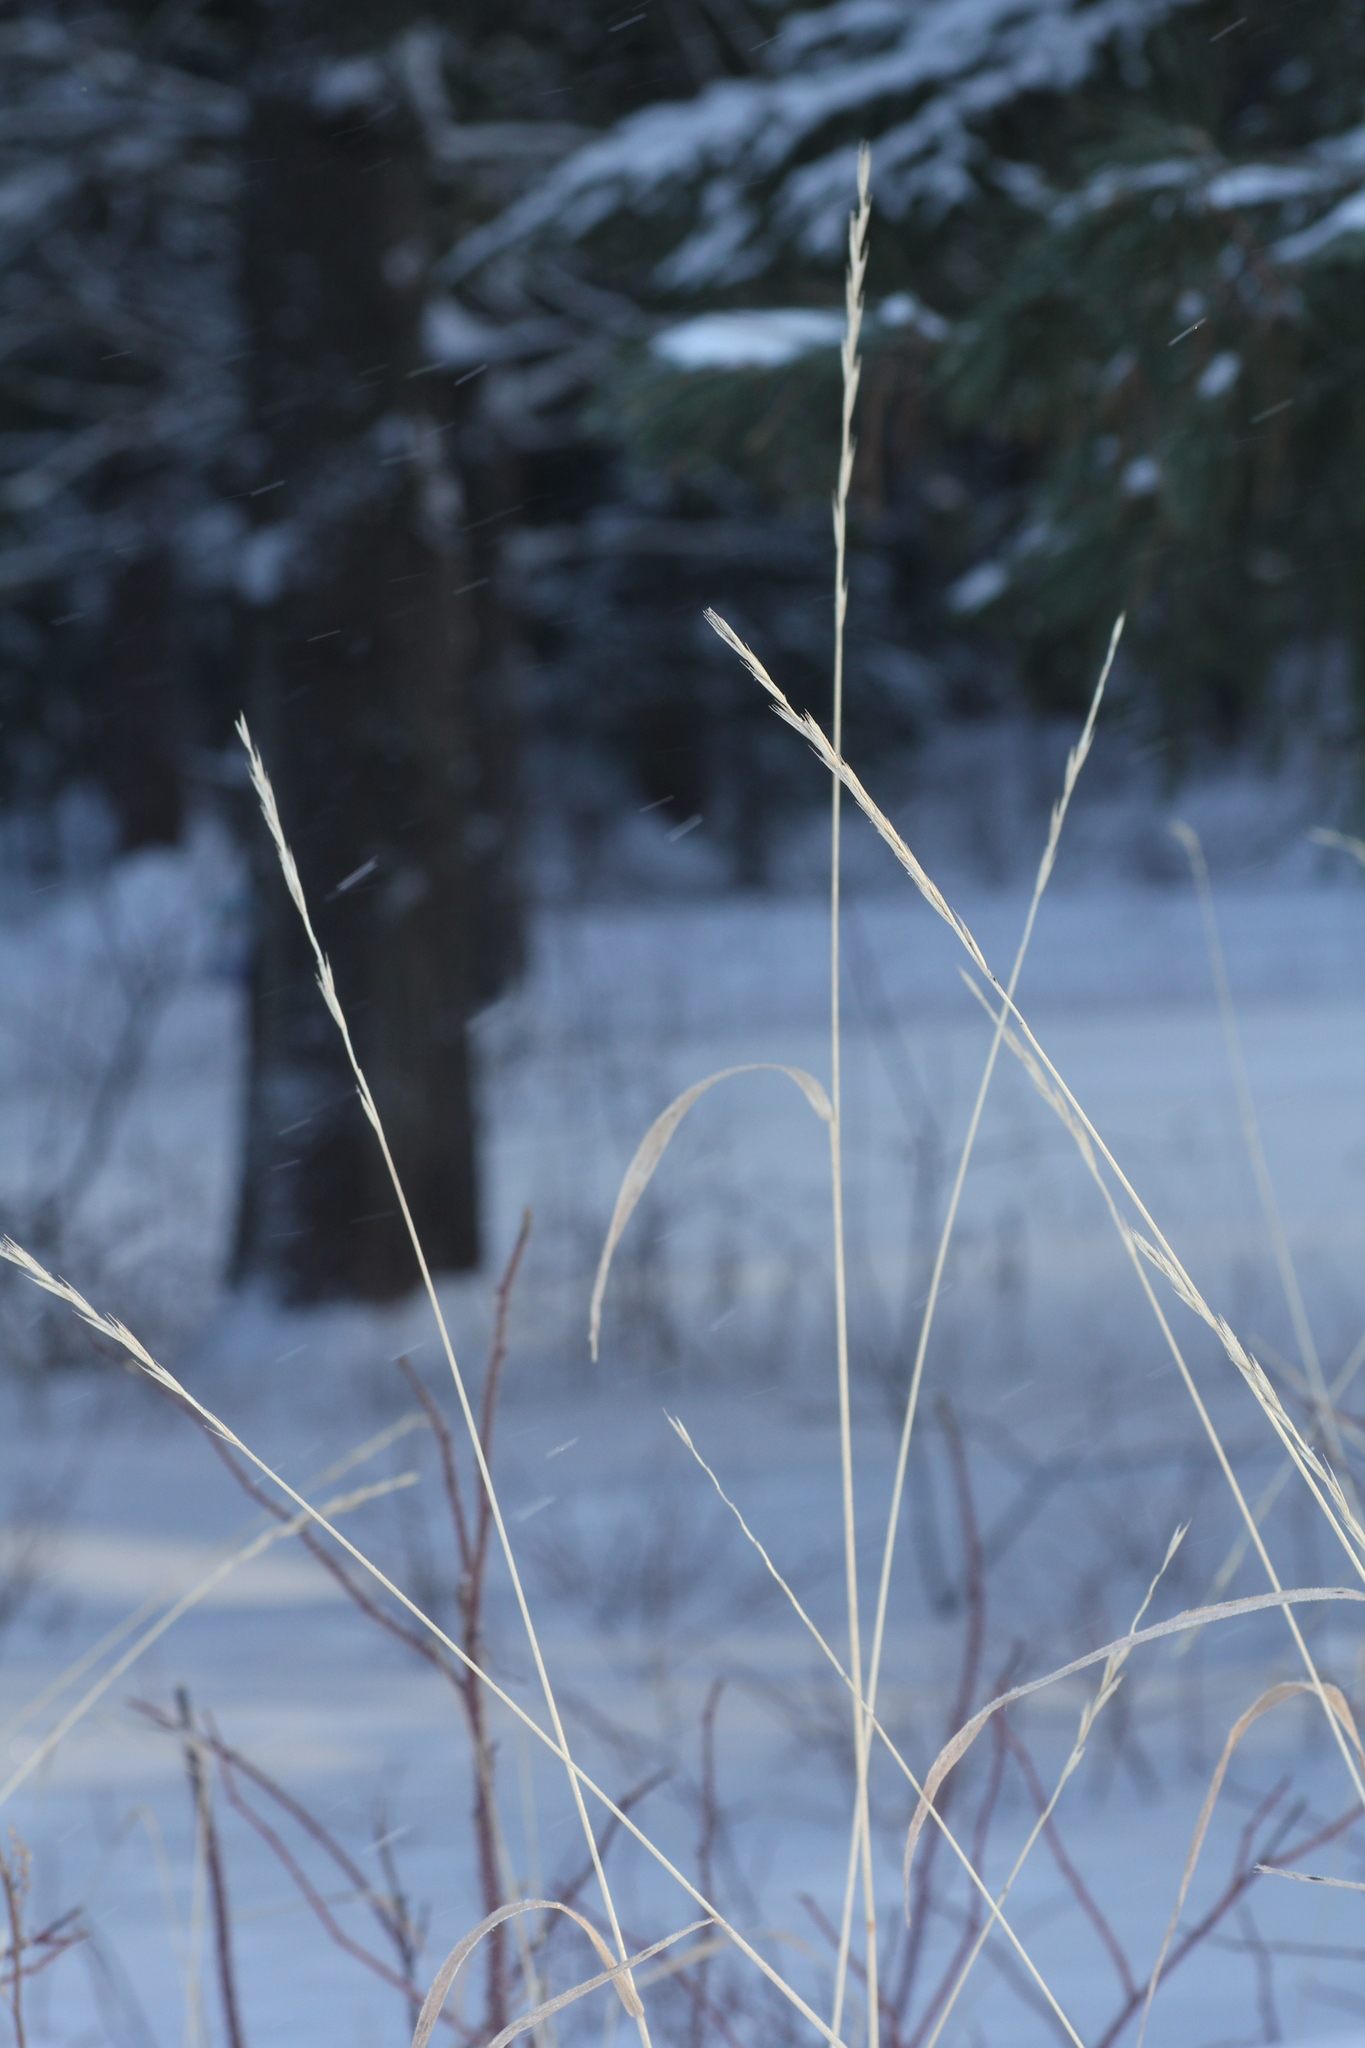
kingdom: Plantae
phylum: Tracheophyta
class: Liliopsida
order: Poales
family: Poaceae
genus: Elymus
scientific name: Elymus repens
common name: Quackgrass
